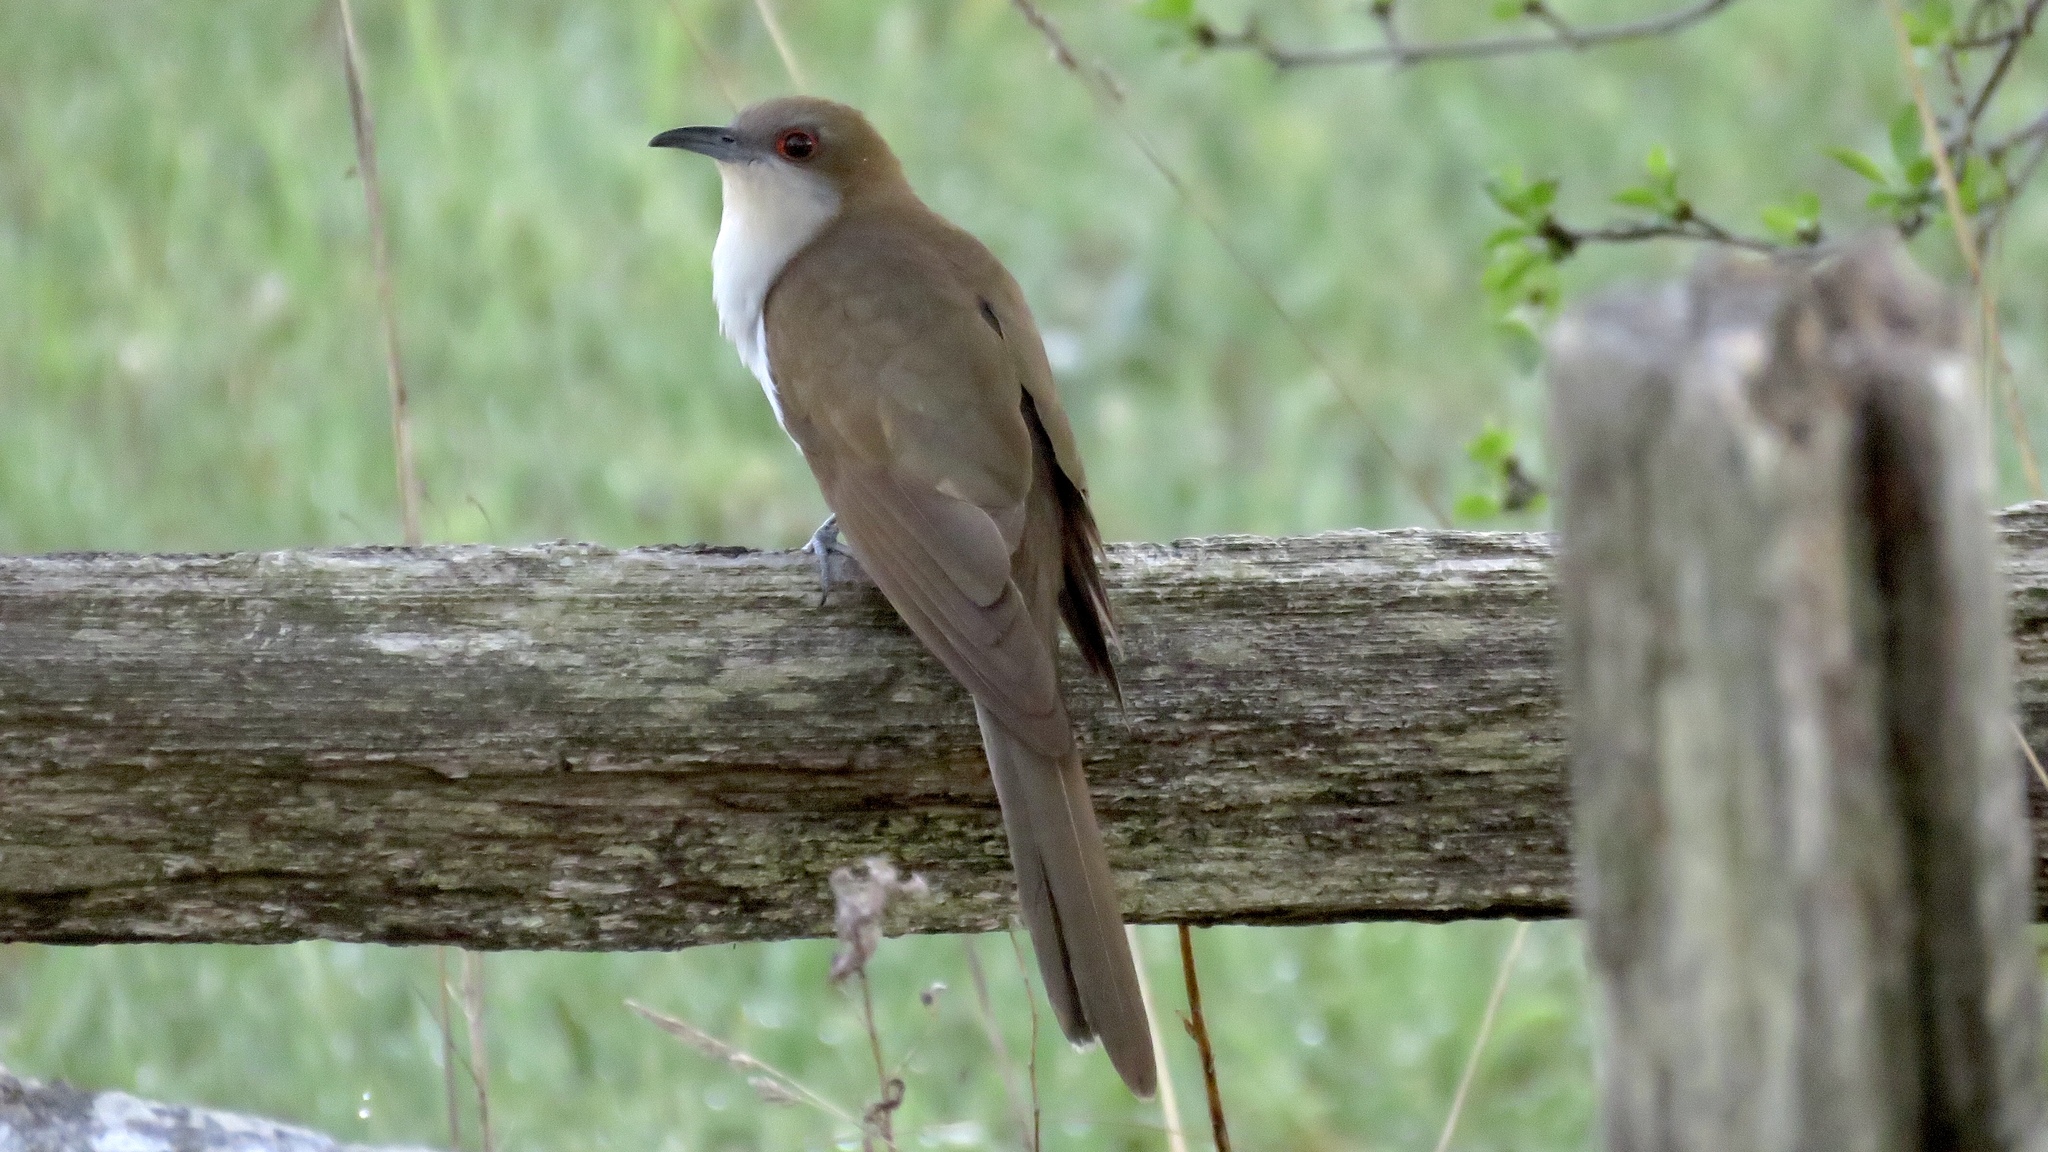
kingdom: Animalia
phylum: Chordata
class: Aves
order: Cuculiformes
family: Cuculidae
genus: Coccyzus
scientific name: Coccyzus erythropthalmus
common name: Black-billed cuckoo
